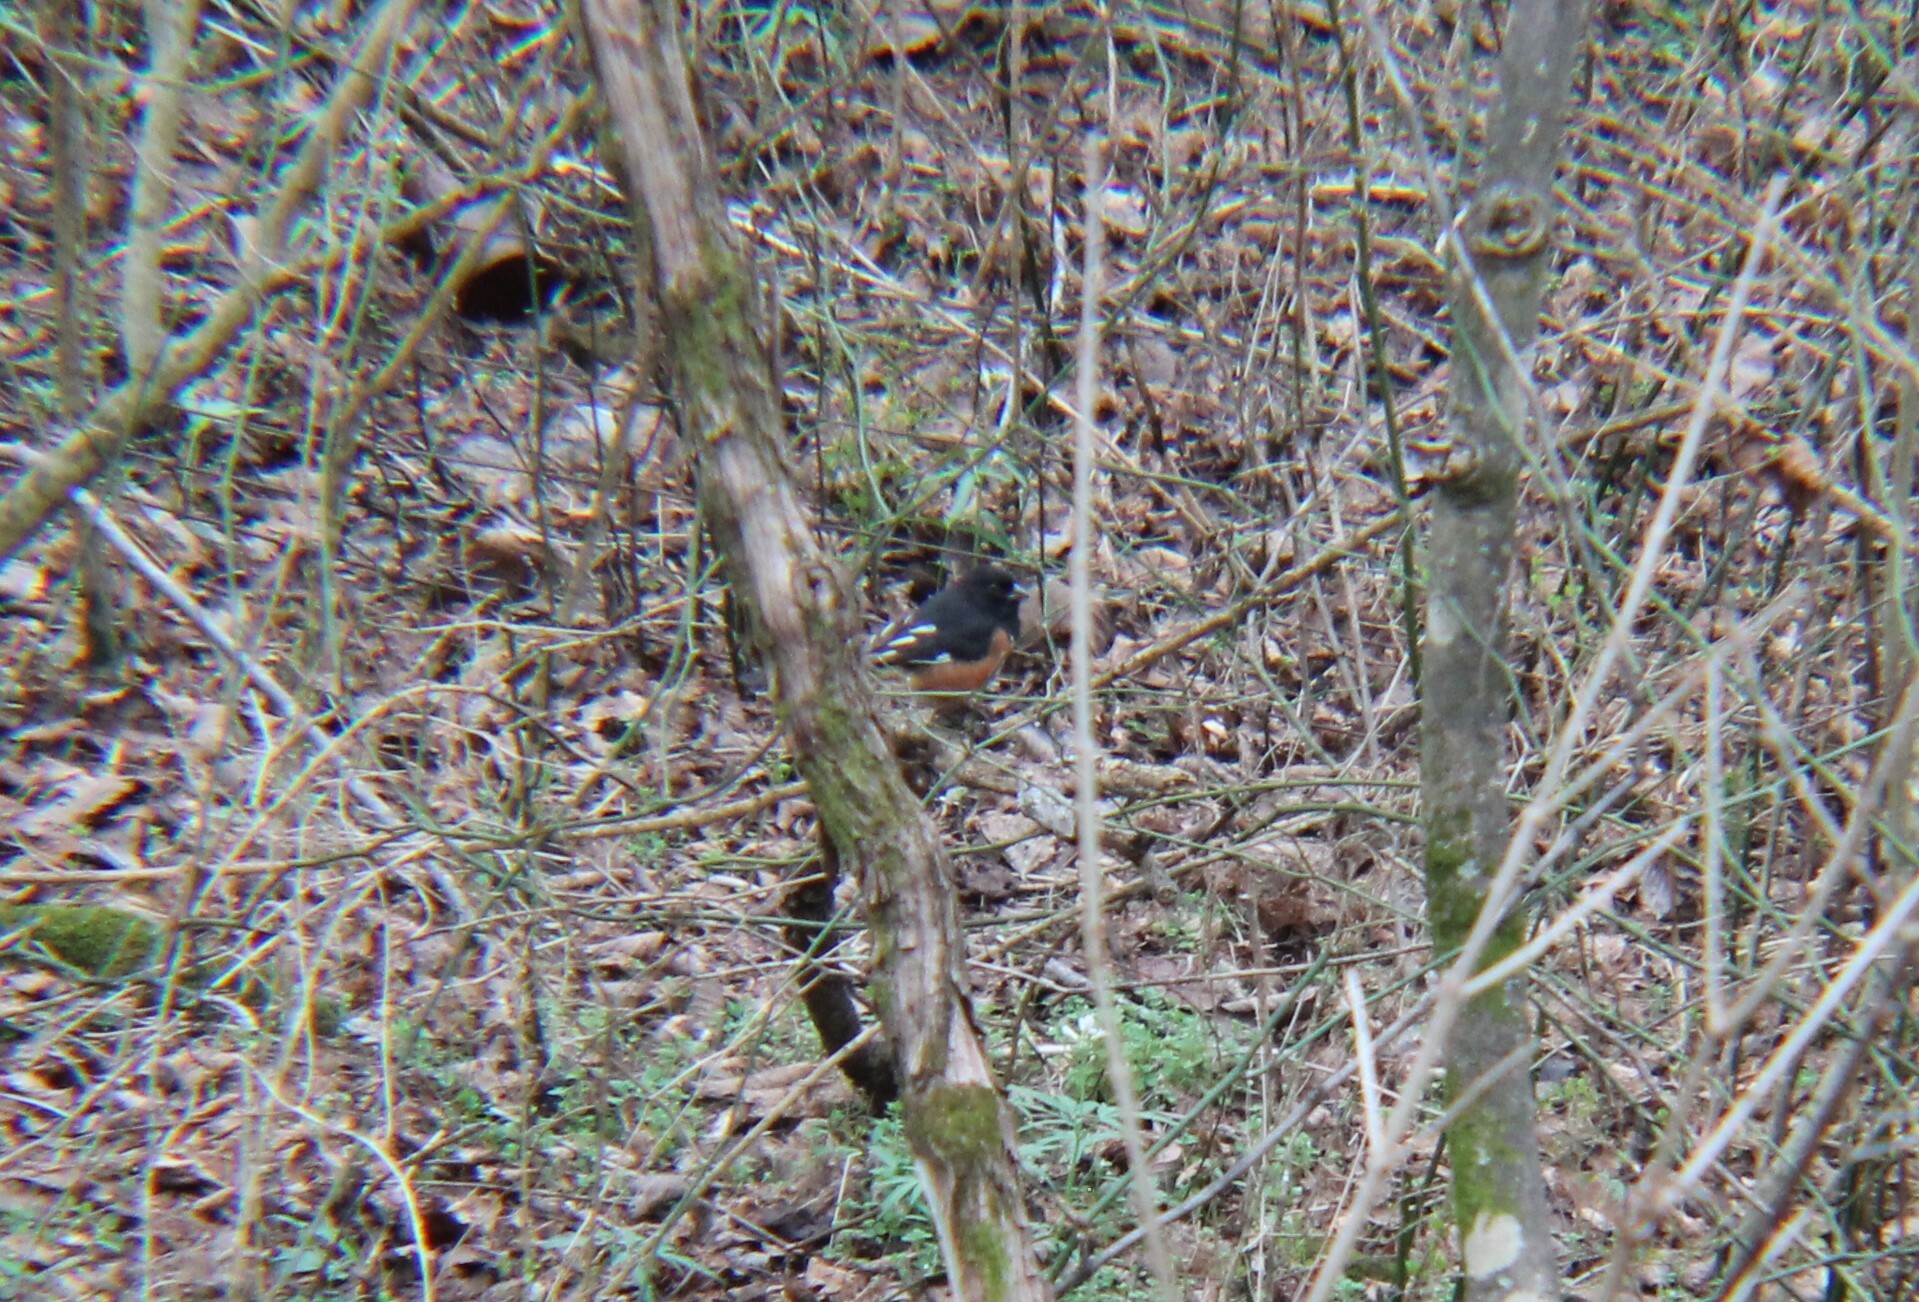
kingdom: Animalia
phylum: Chordata
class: Aves
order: Passeriformes
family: Passerellidae
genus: Pipilo
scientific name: Pipilo erythrophthalmus
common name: Eastern towhee
